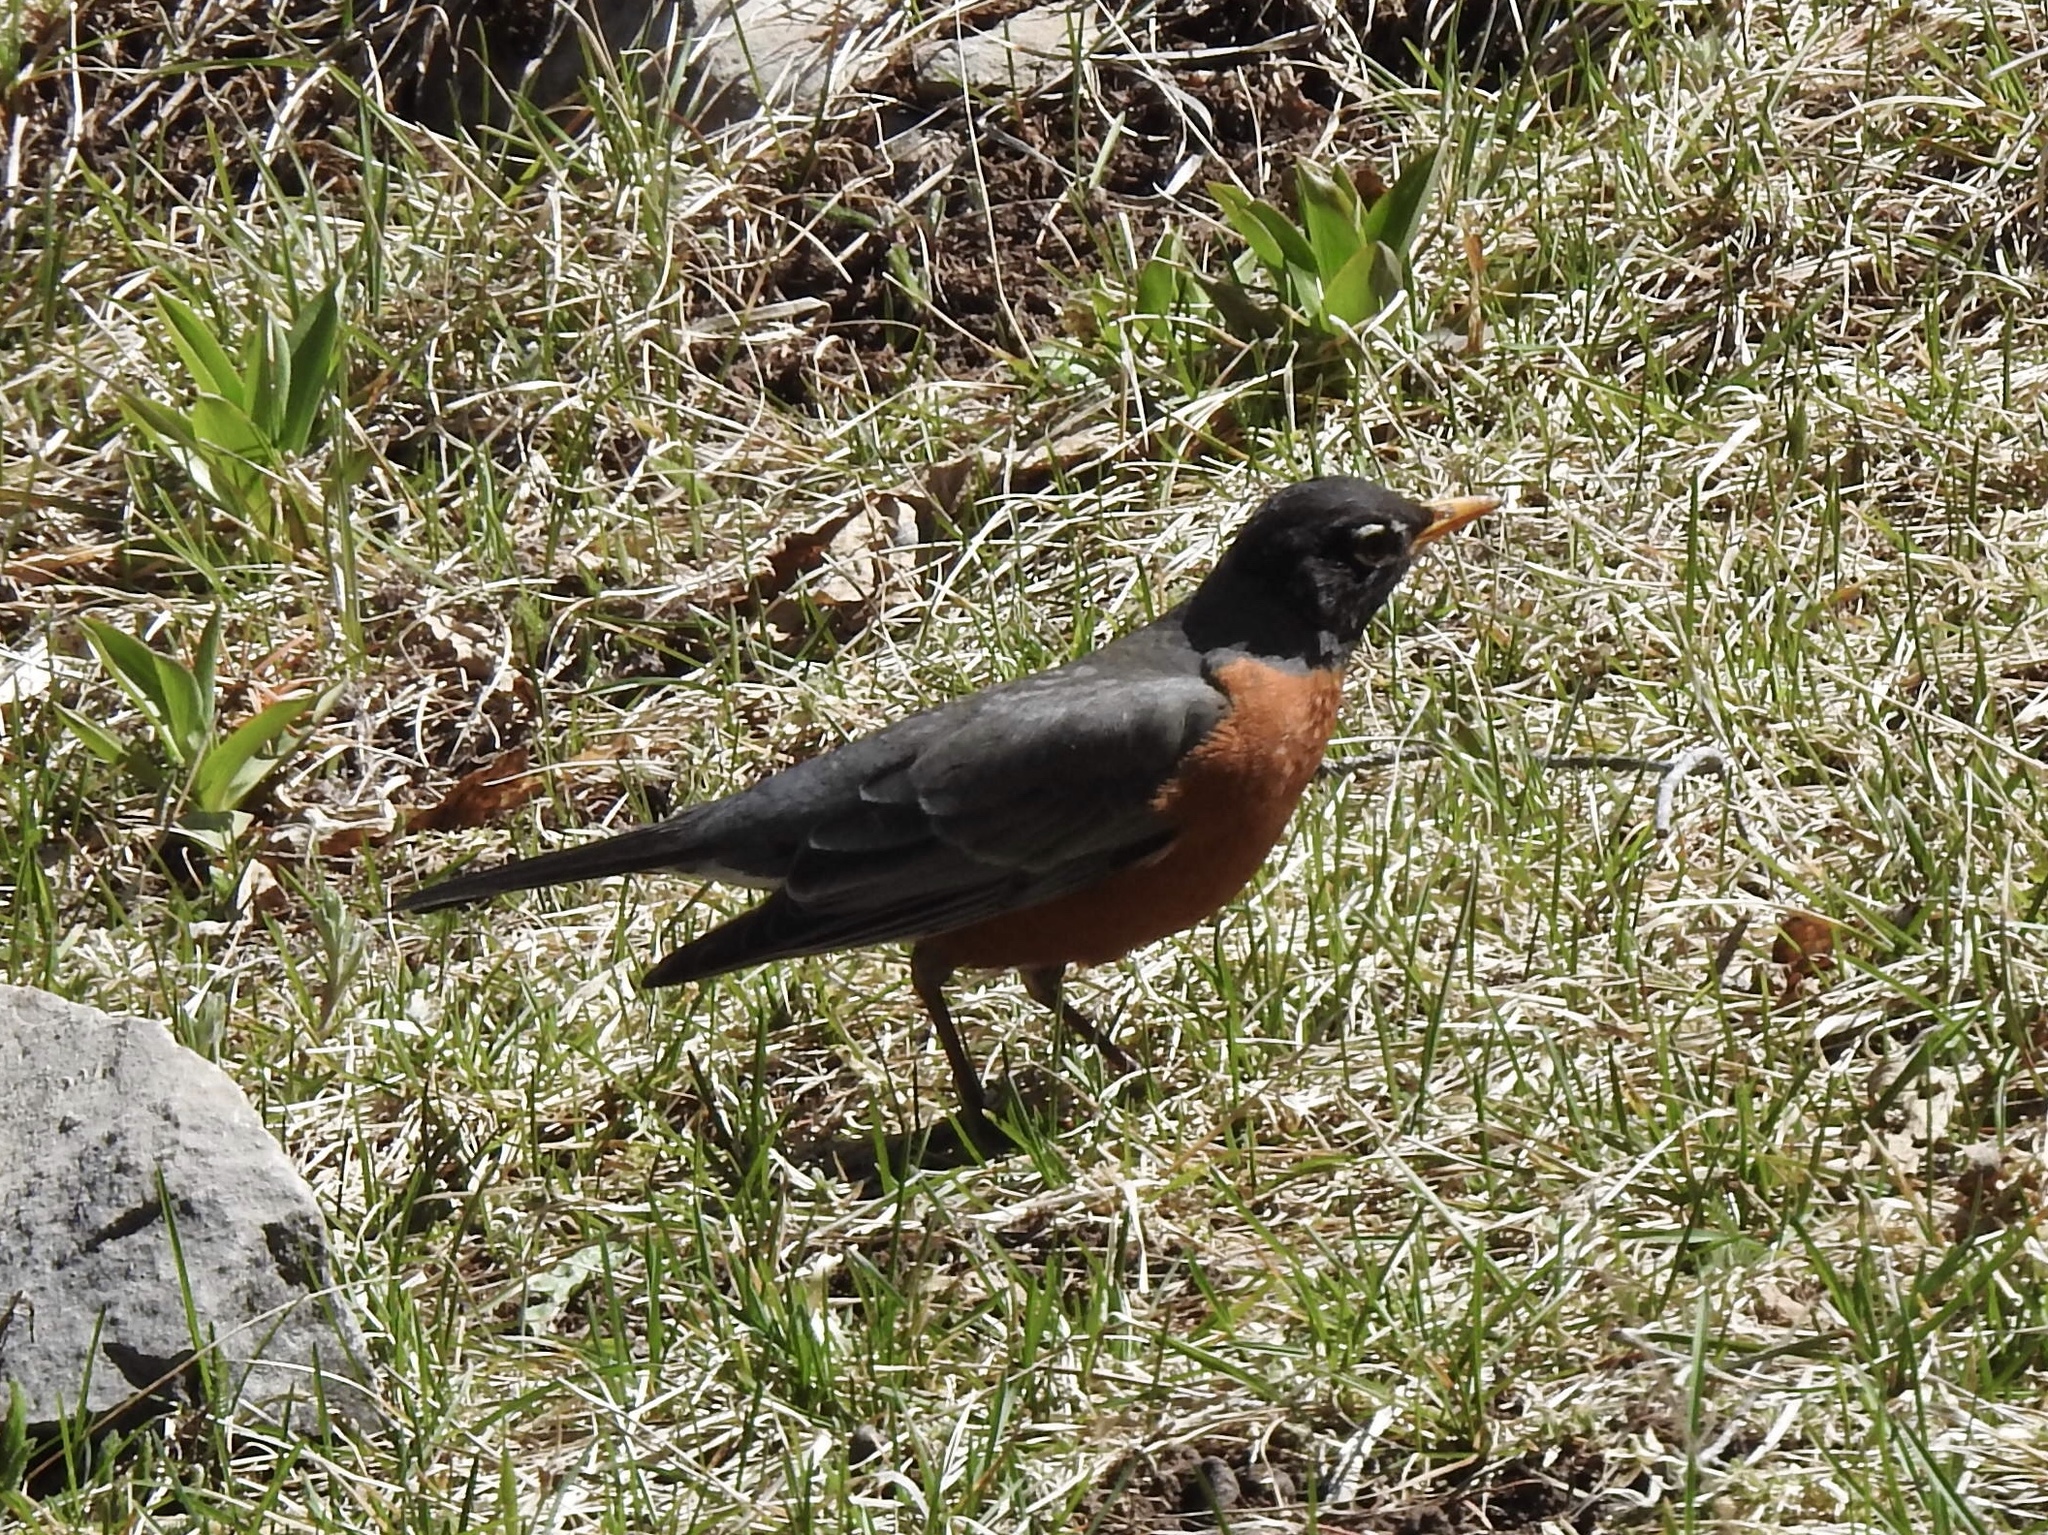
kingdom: Animalia
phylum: Chordata
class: Aves
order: Passeriformes
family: Turdidae
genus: Turdus
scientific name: Turdus migratorius
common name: American robin
